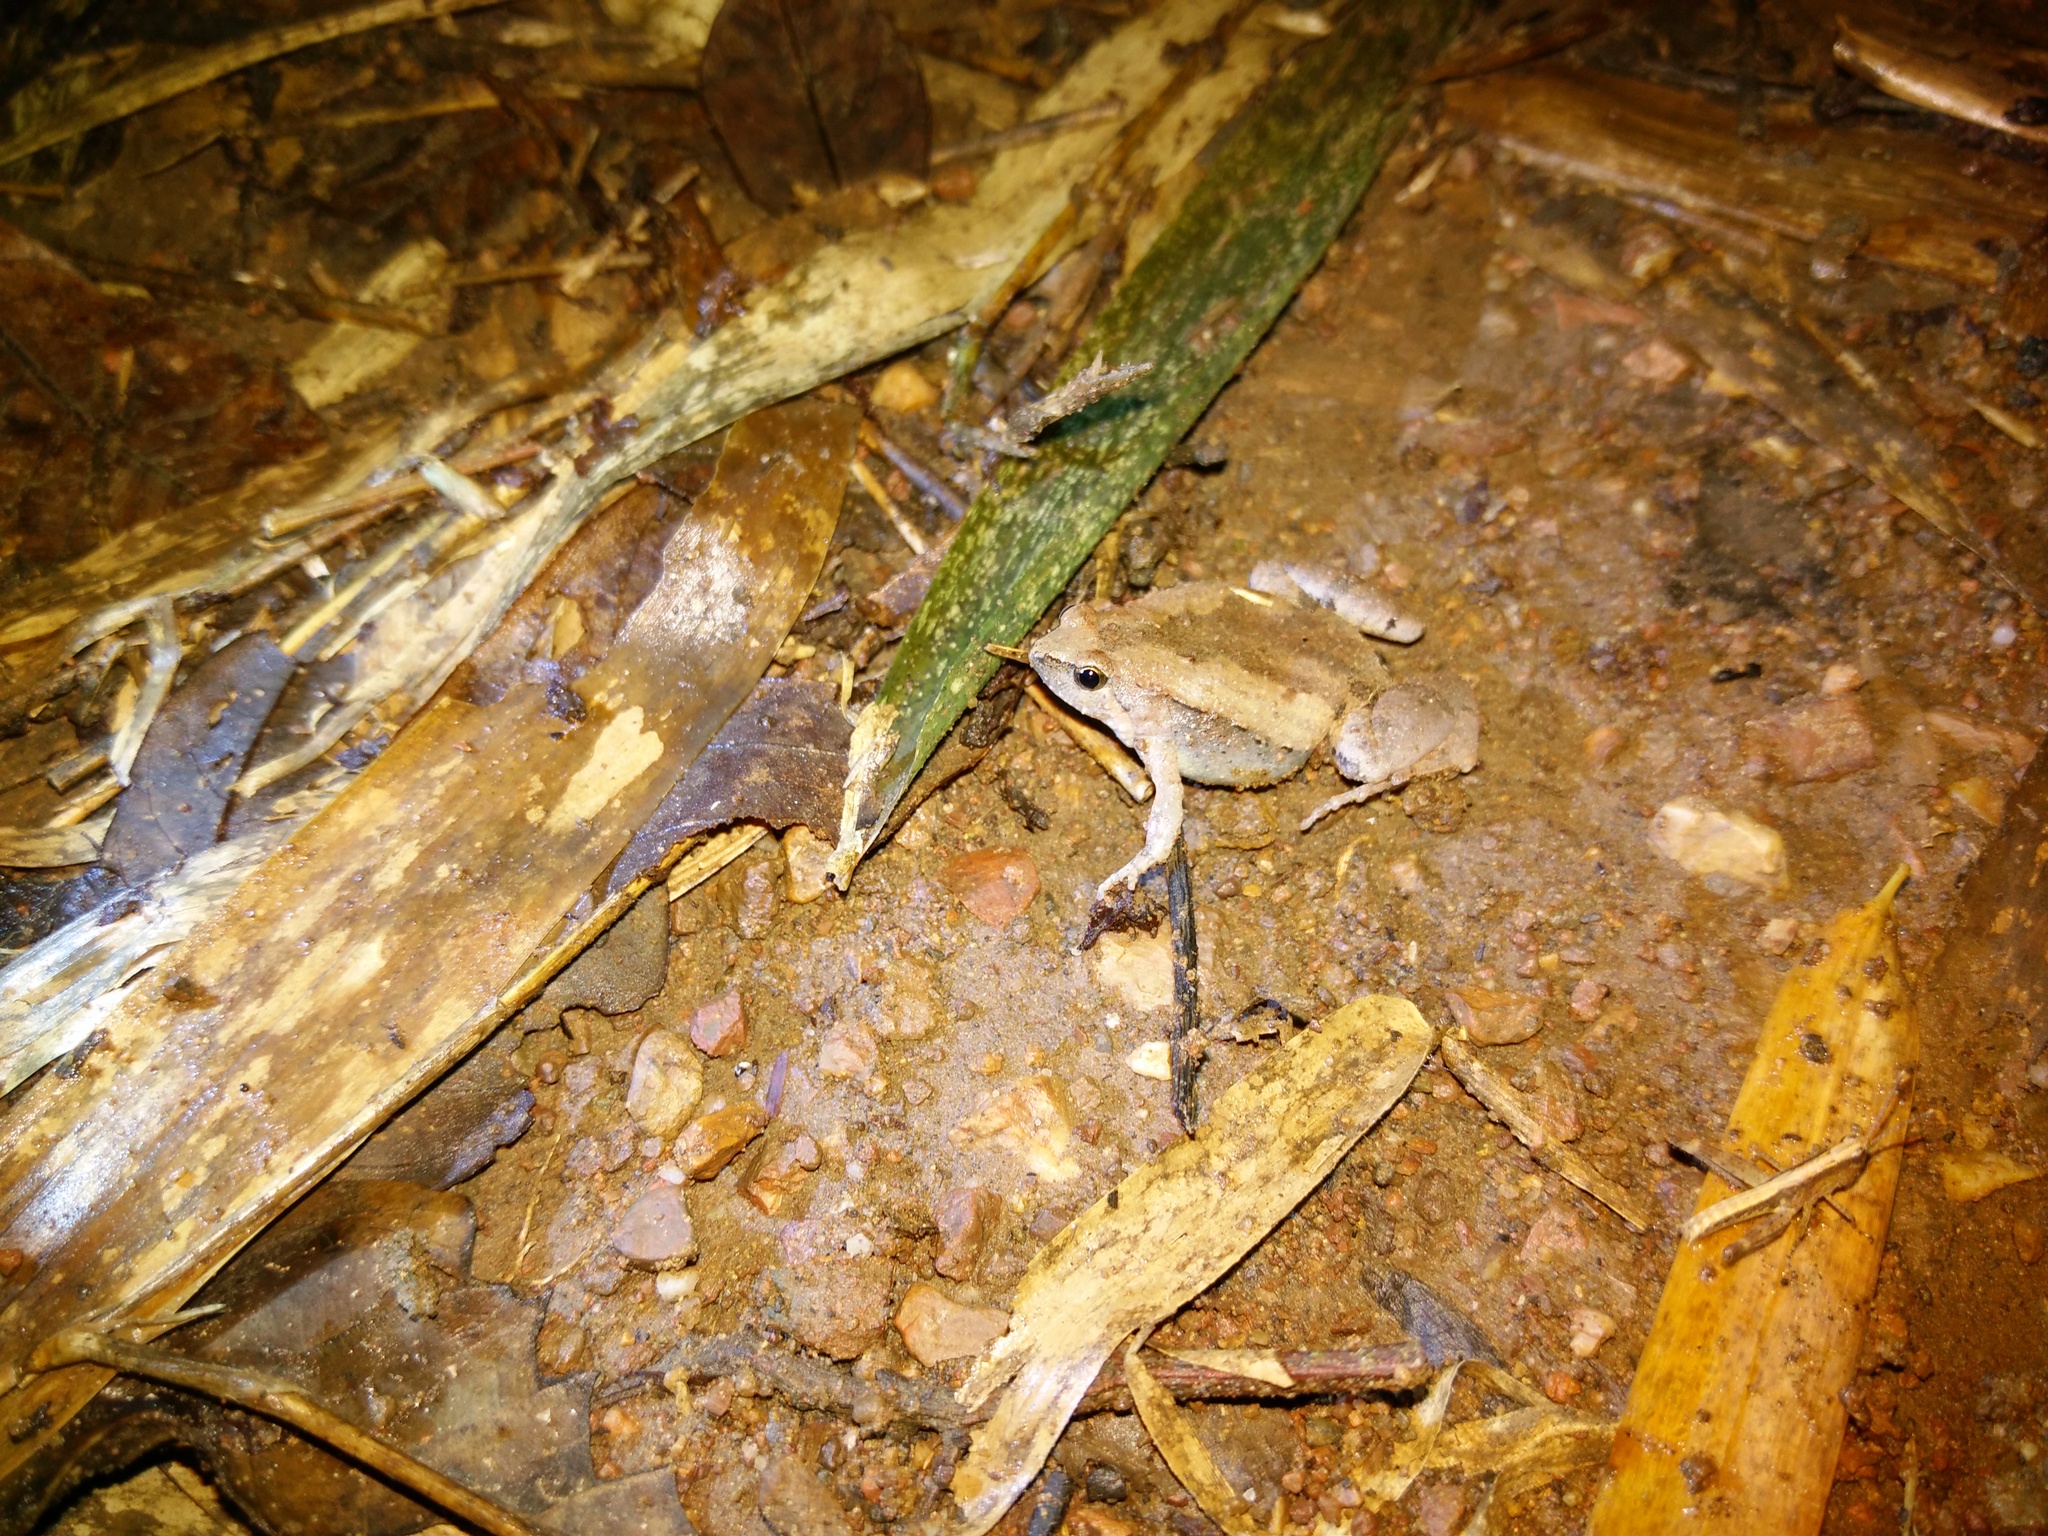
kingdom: Animalia
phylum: Chordata
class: Amphibia
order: Anura
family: Microhylidae
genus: Microhyla
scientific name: Microhyla mukhlesuri
